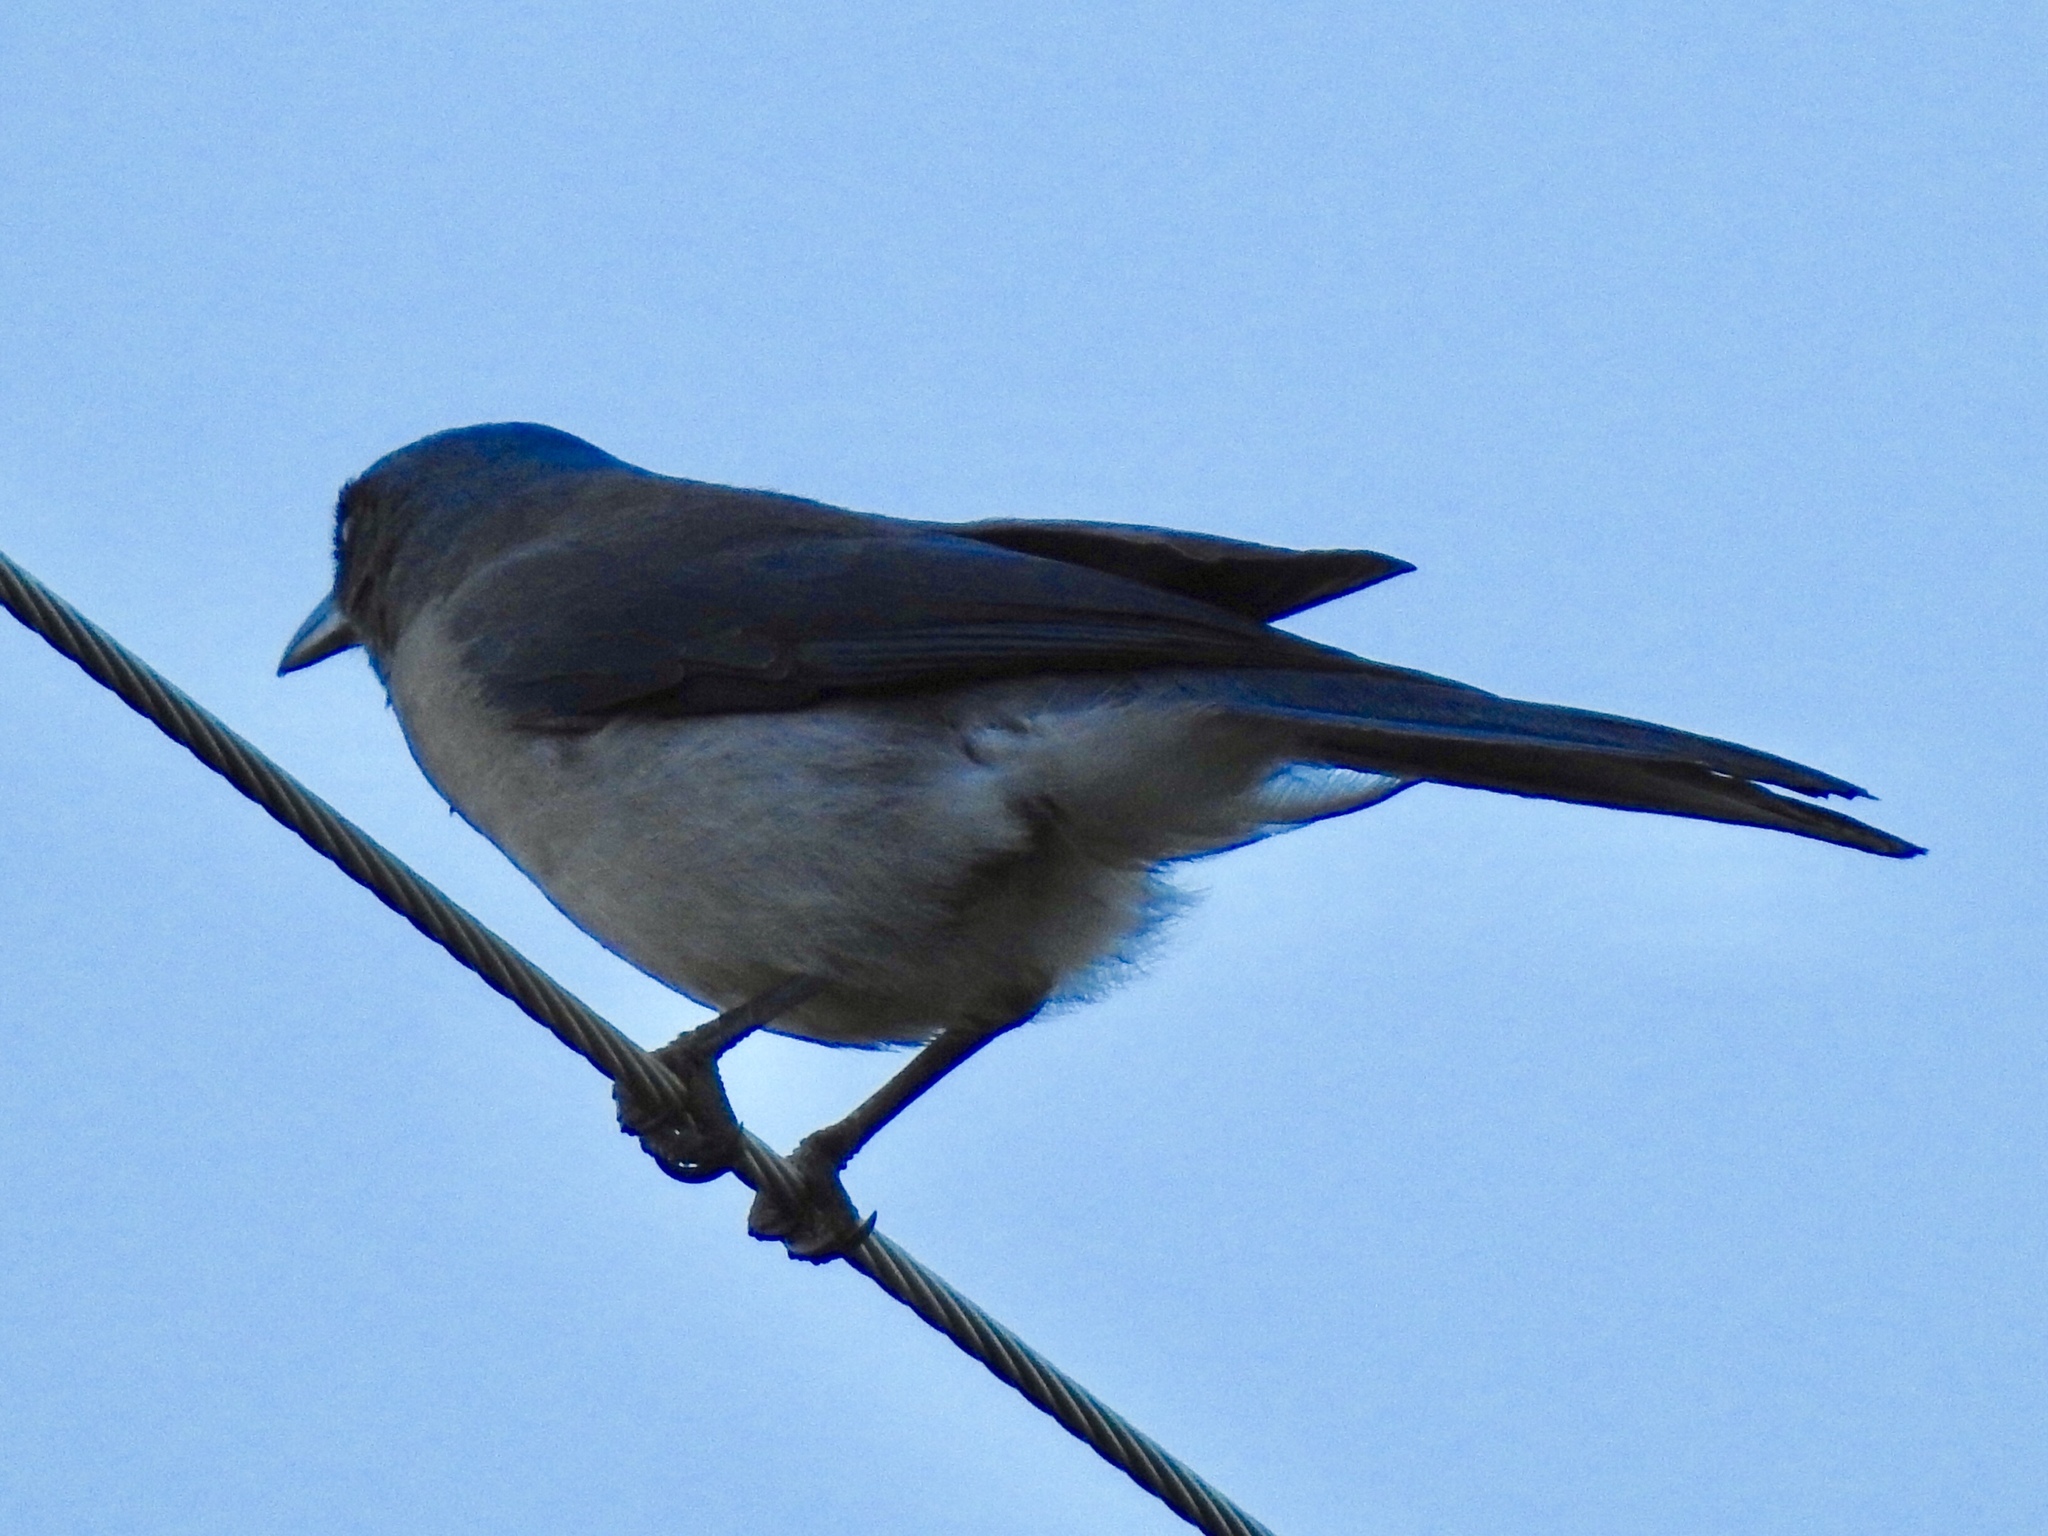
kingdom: Animalia
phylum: Chordata
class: Aves
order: Passeriformes
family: Corvidae
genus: Aphelocoma
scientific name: Aphelocoma wollweberi
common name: Mexican jay
